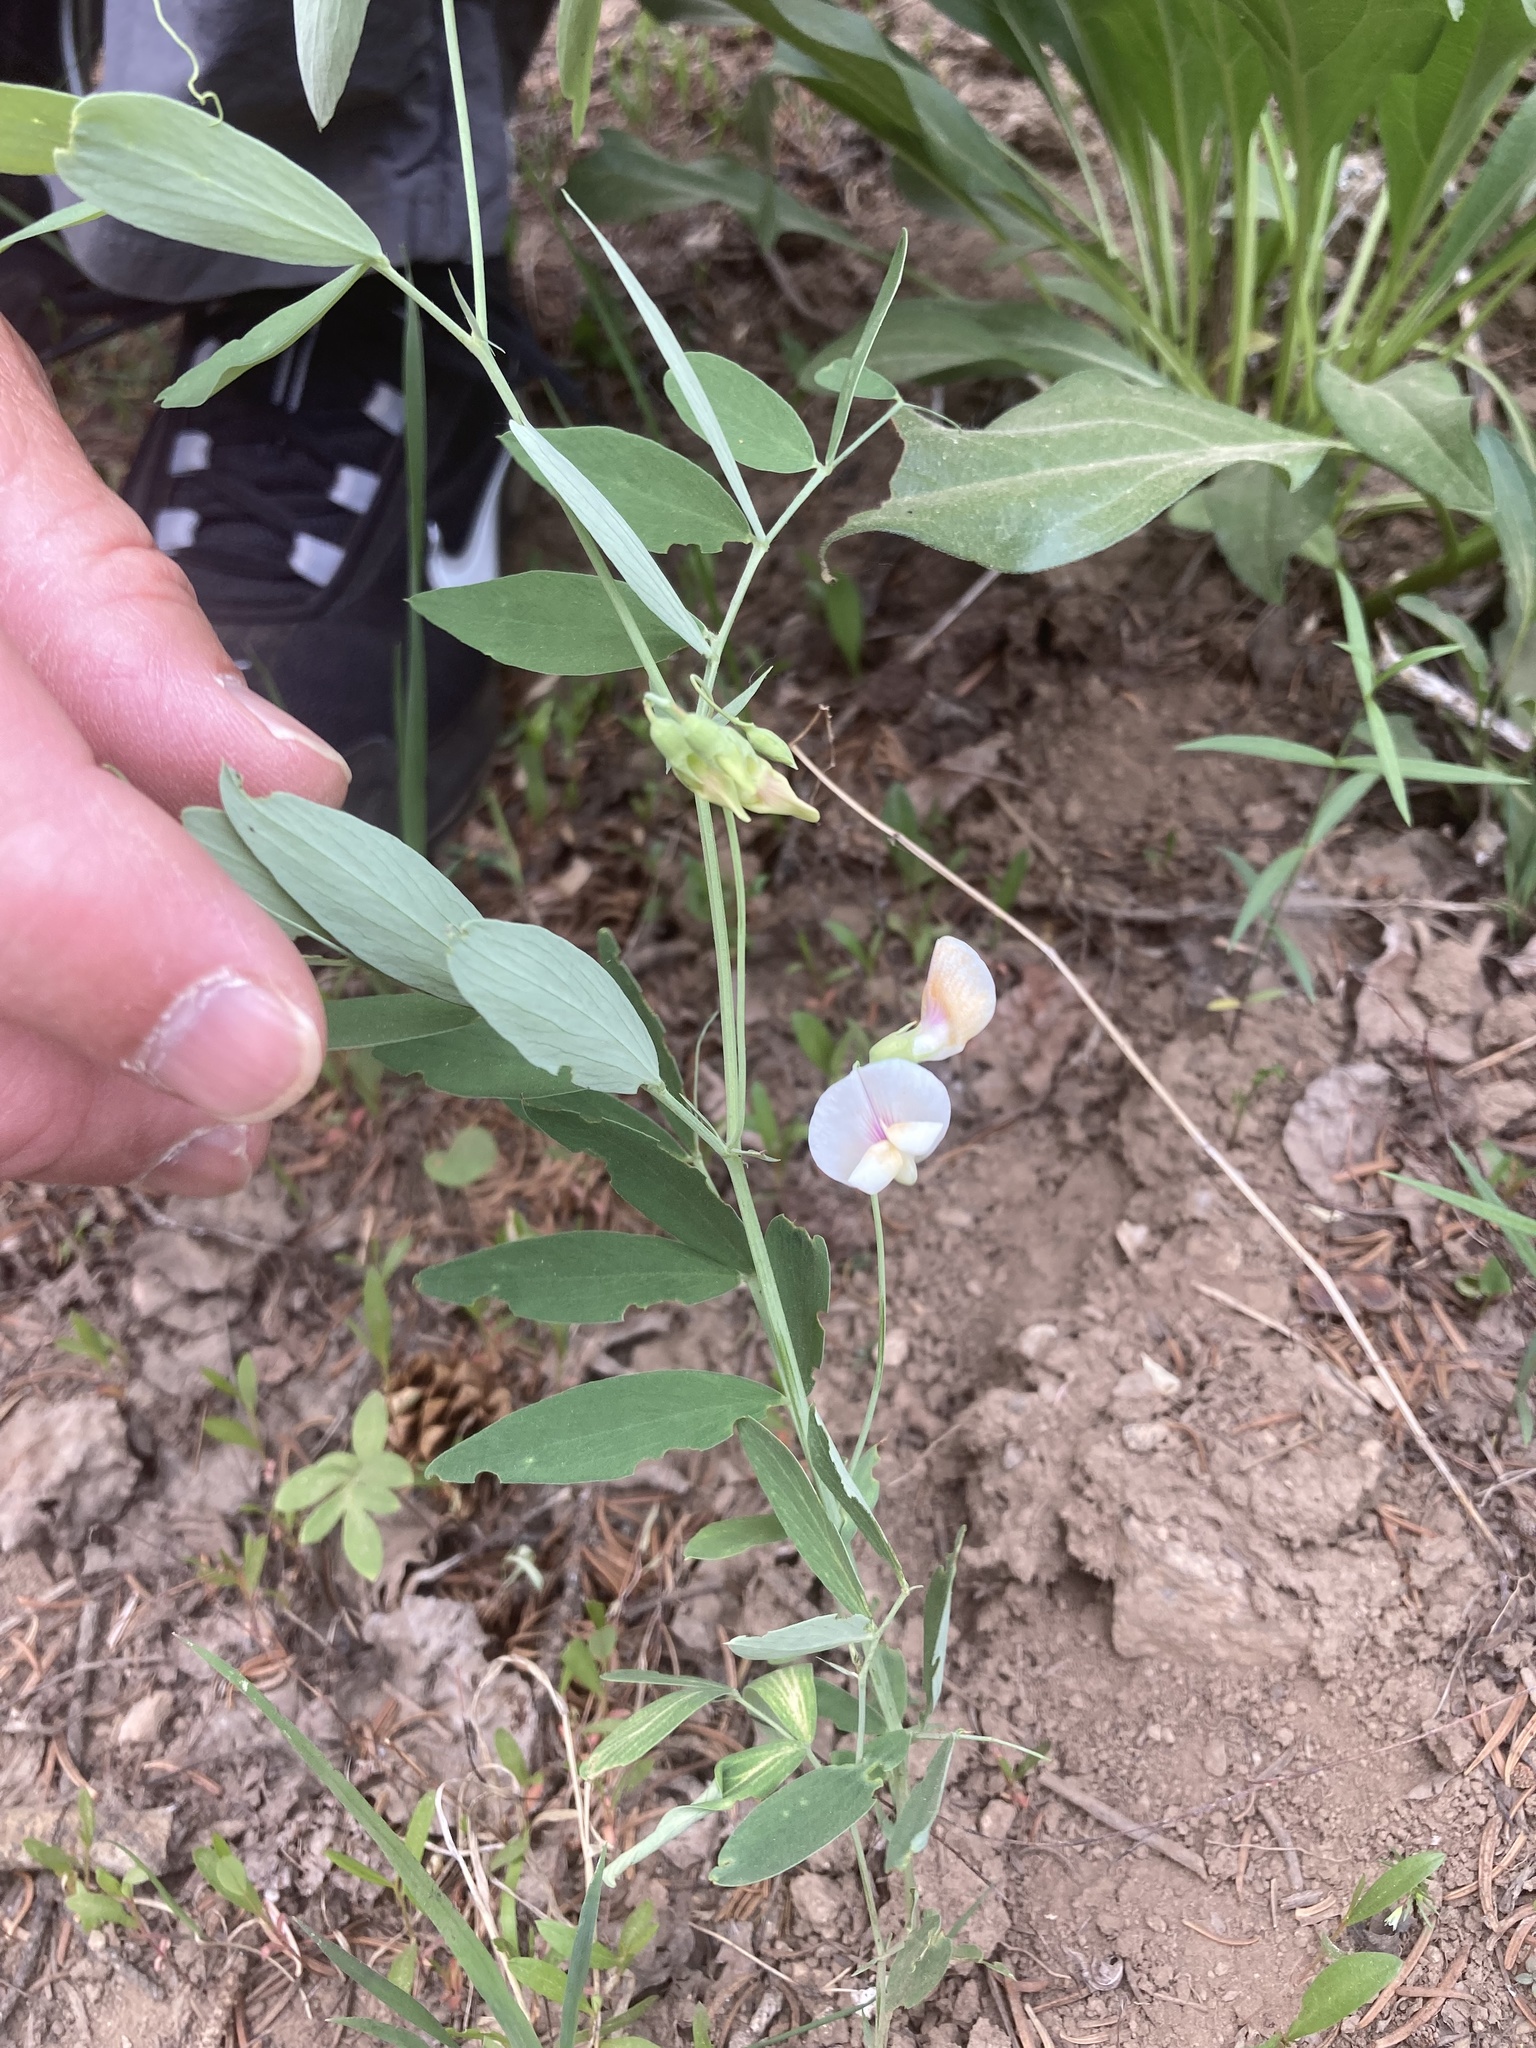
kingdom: Plantae
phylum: Tracheophyta
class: Magnoliopsida
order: Fabales
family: Fabaceae
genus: Lathyrus
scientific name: Lathyrus lanszwertii
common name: Lanszwert's vetchling
